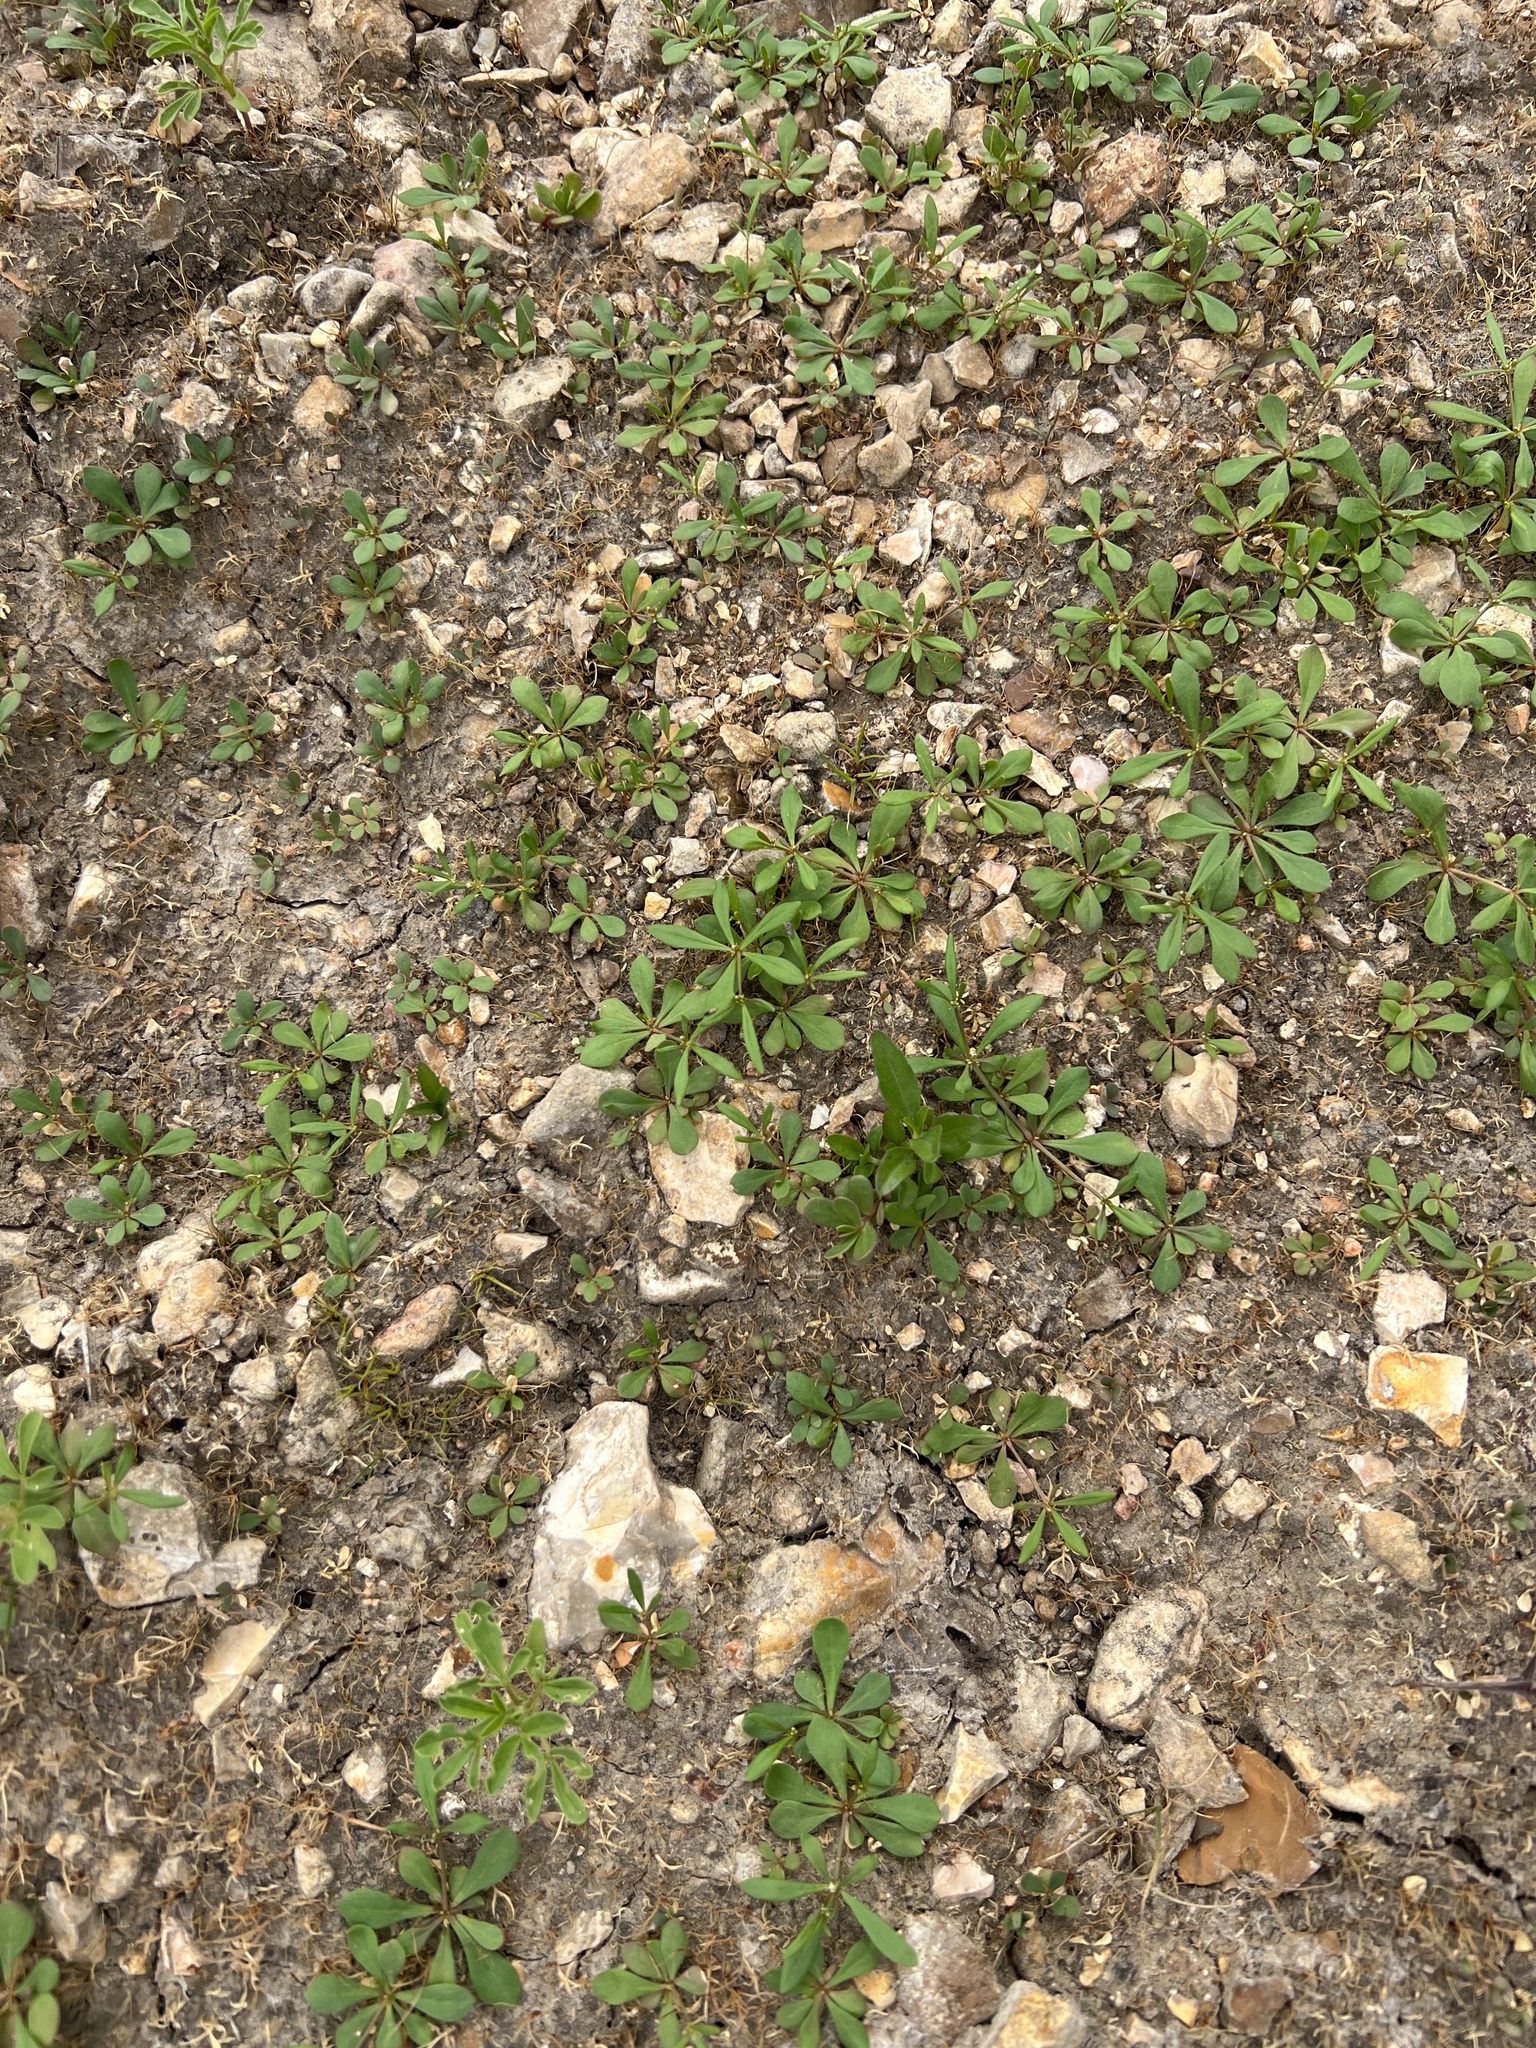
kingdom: Plantae
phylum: Tracheophyta
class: Magnoliopsida
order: Caryophyllales
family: Molluginaceae
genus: Mollugo
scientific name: Mollugo verticillata
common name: Green carpetweed
